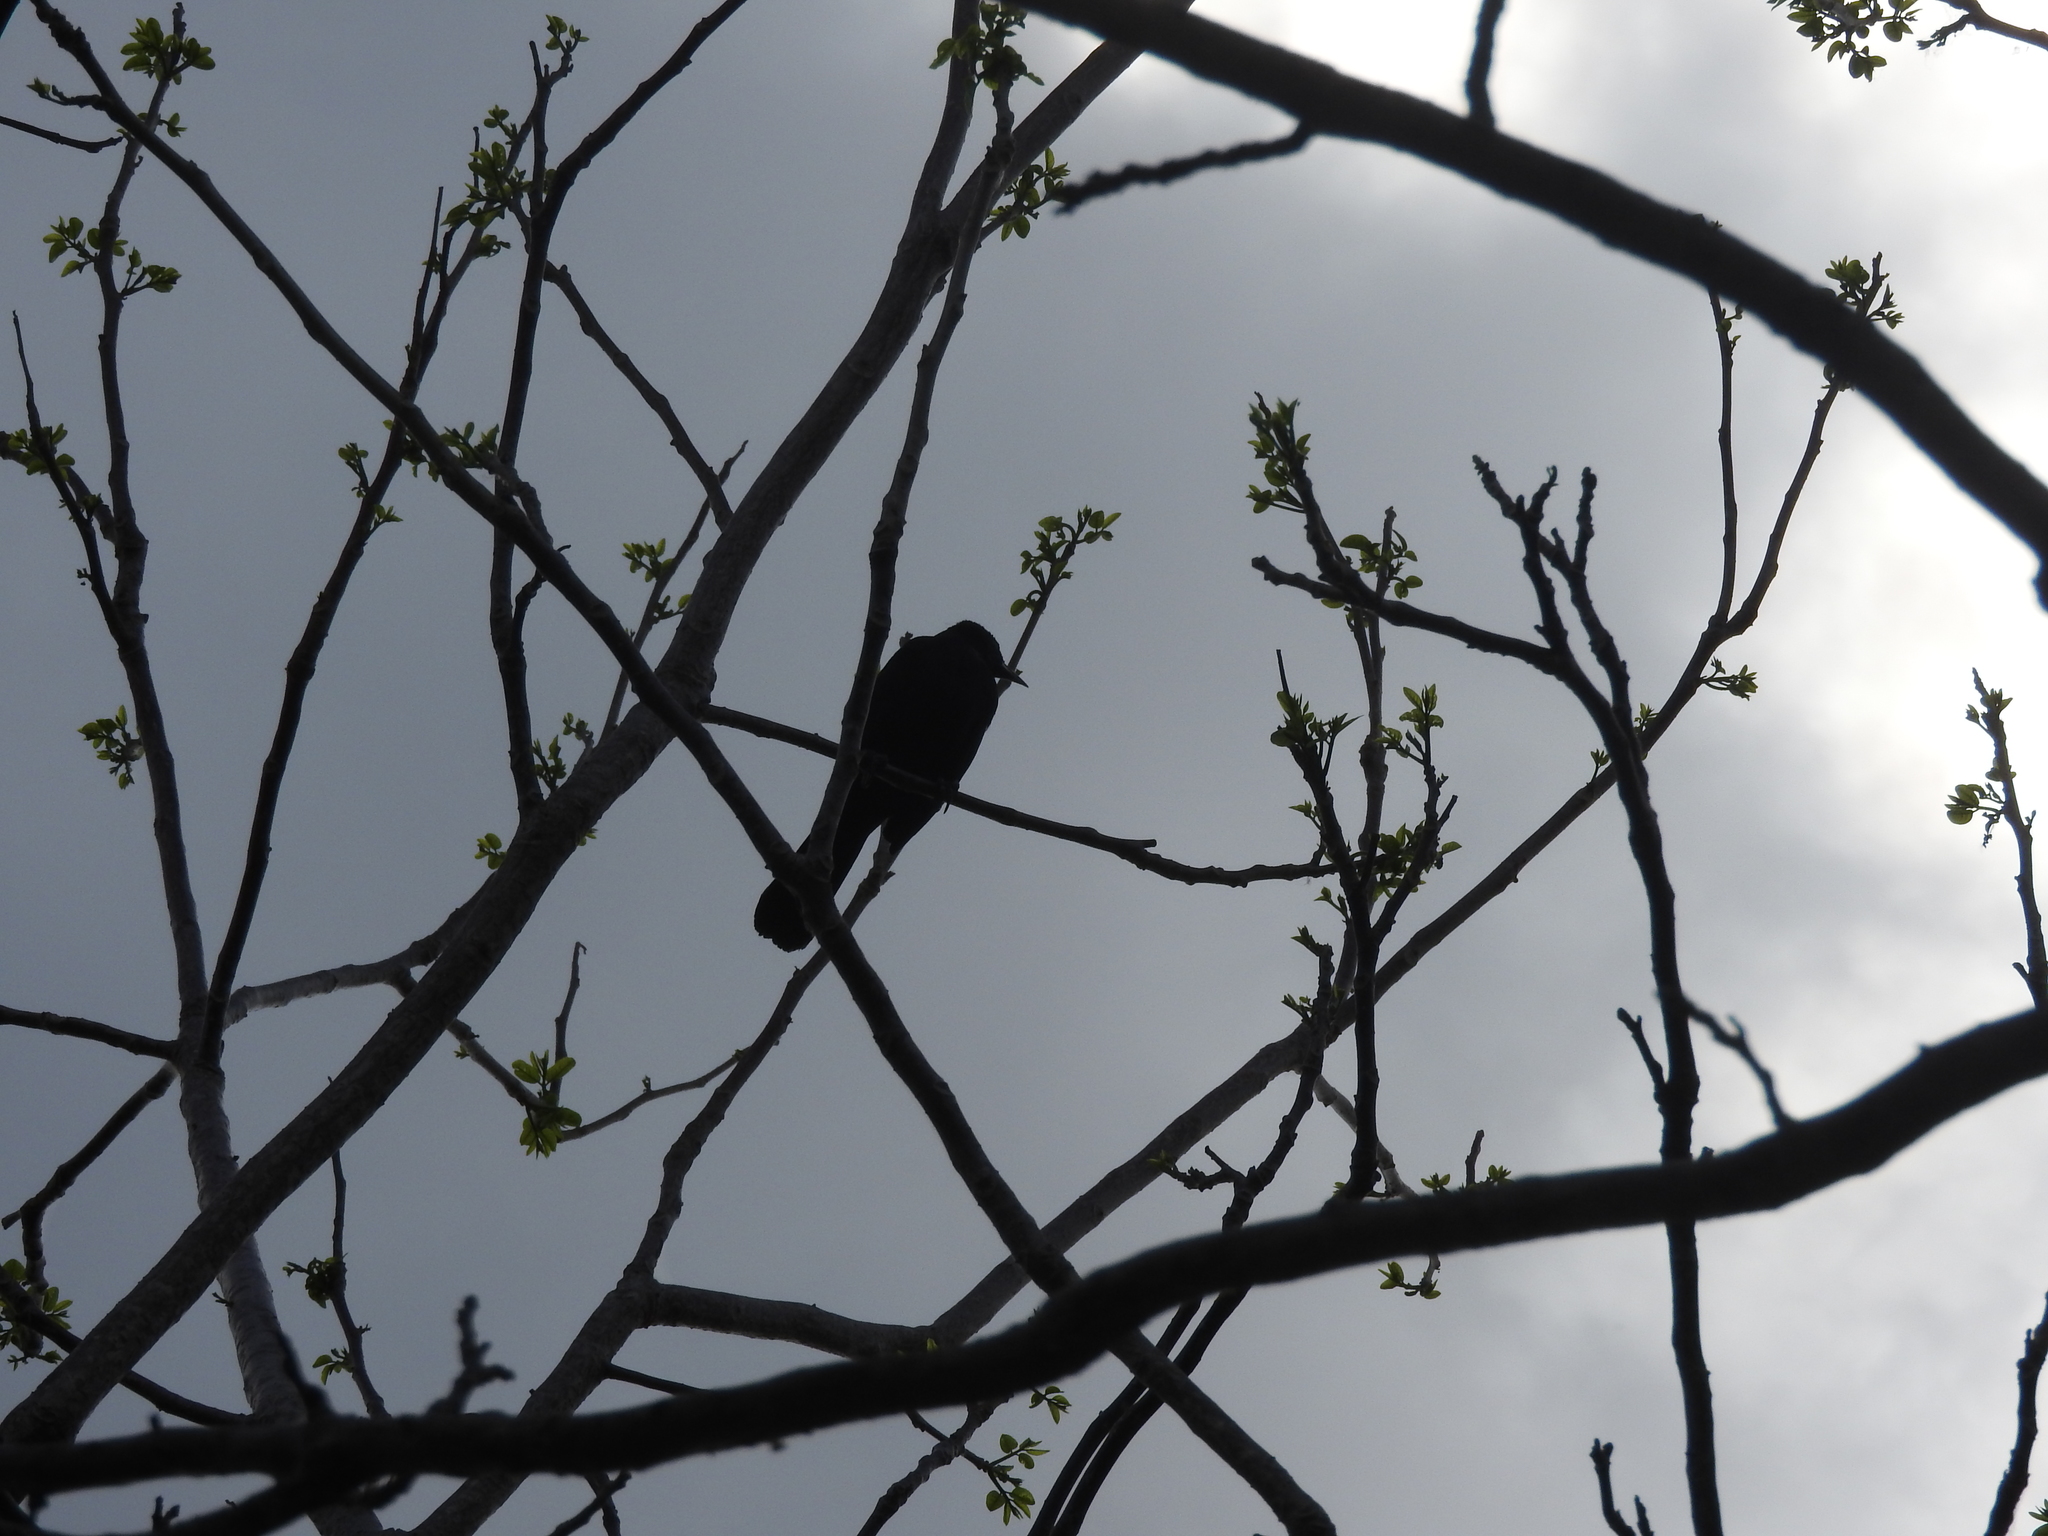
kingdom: Animalia
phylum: Chordata
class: Aves
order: Passeriformes
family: Icteridae
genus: Dives
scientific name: Dives dives
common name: Melodious blackbird
